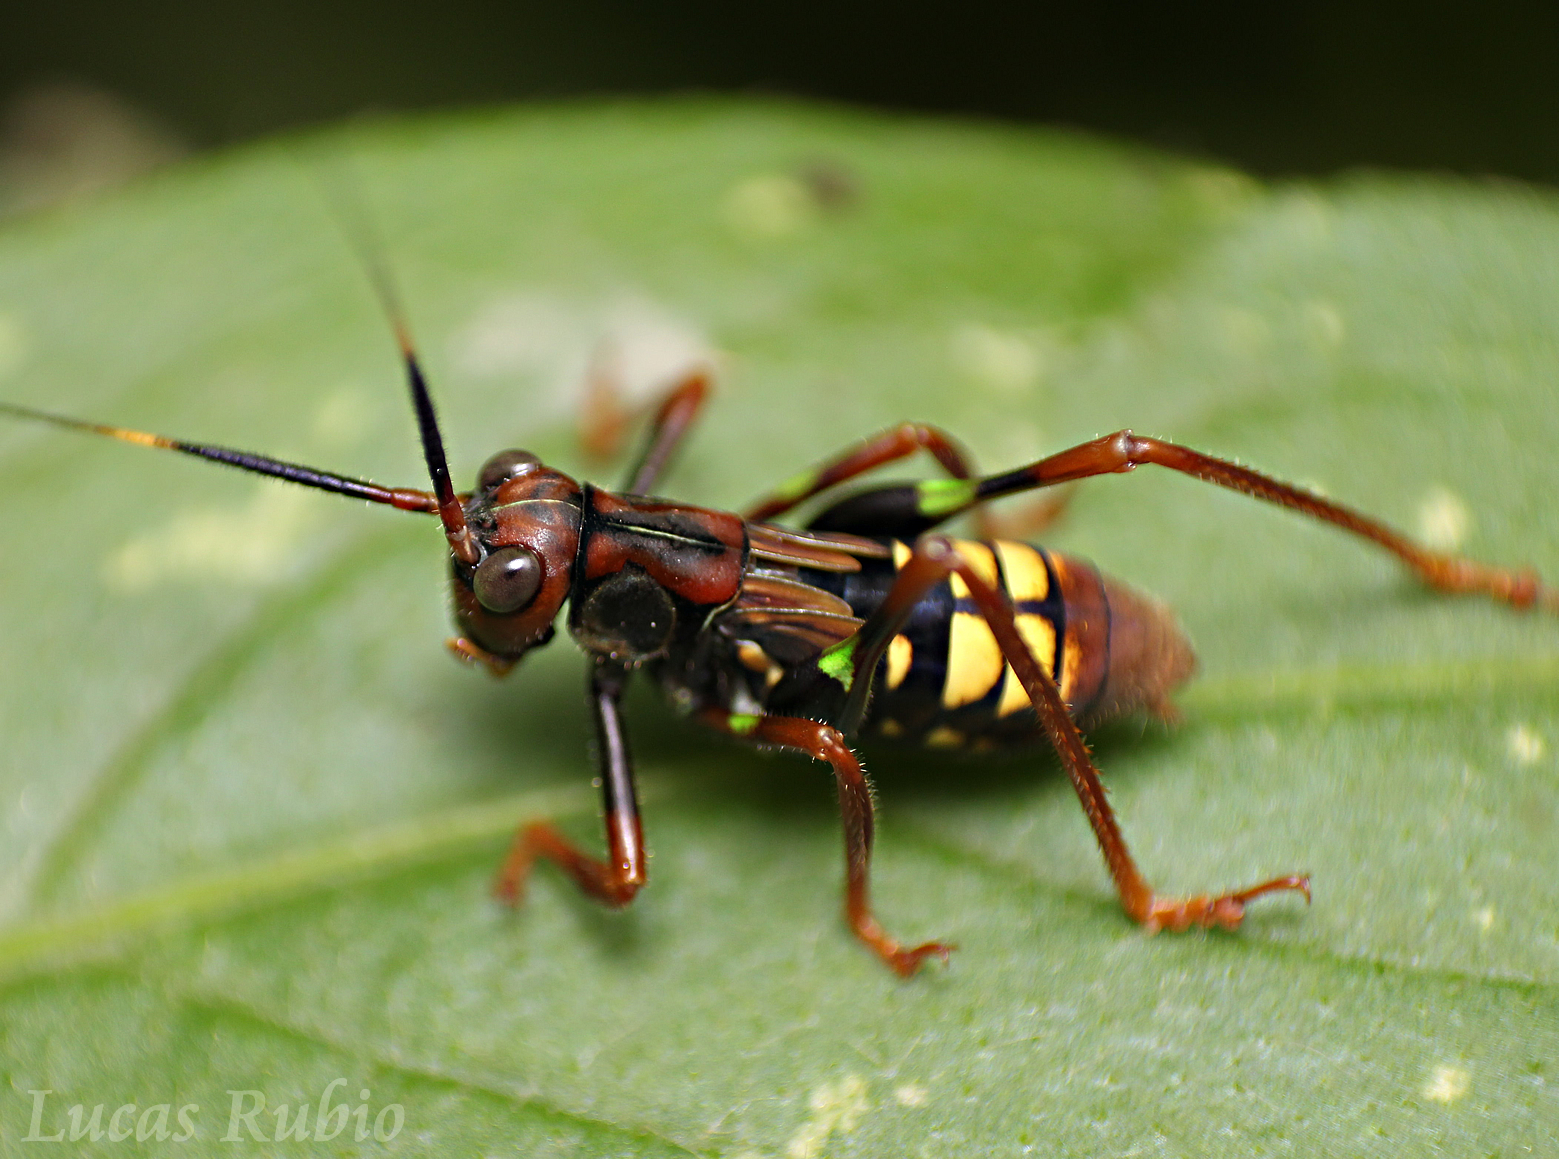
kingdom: Animalia
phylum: Arthropoda
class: Insecta
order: Orthoptera
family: Tettigoniidae
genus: Scaphura
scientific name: Scaphura nigra
